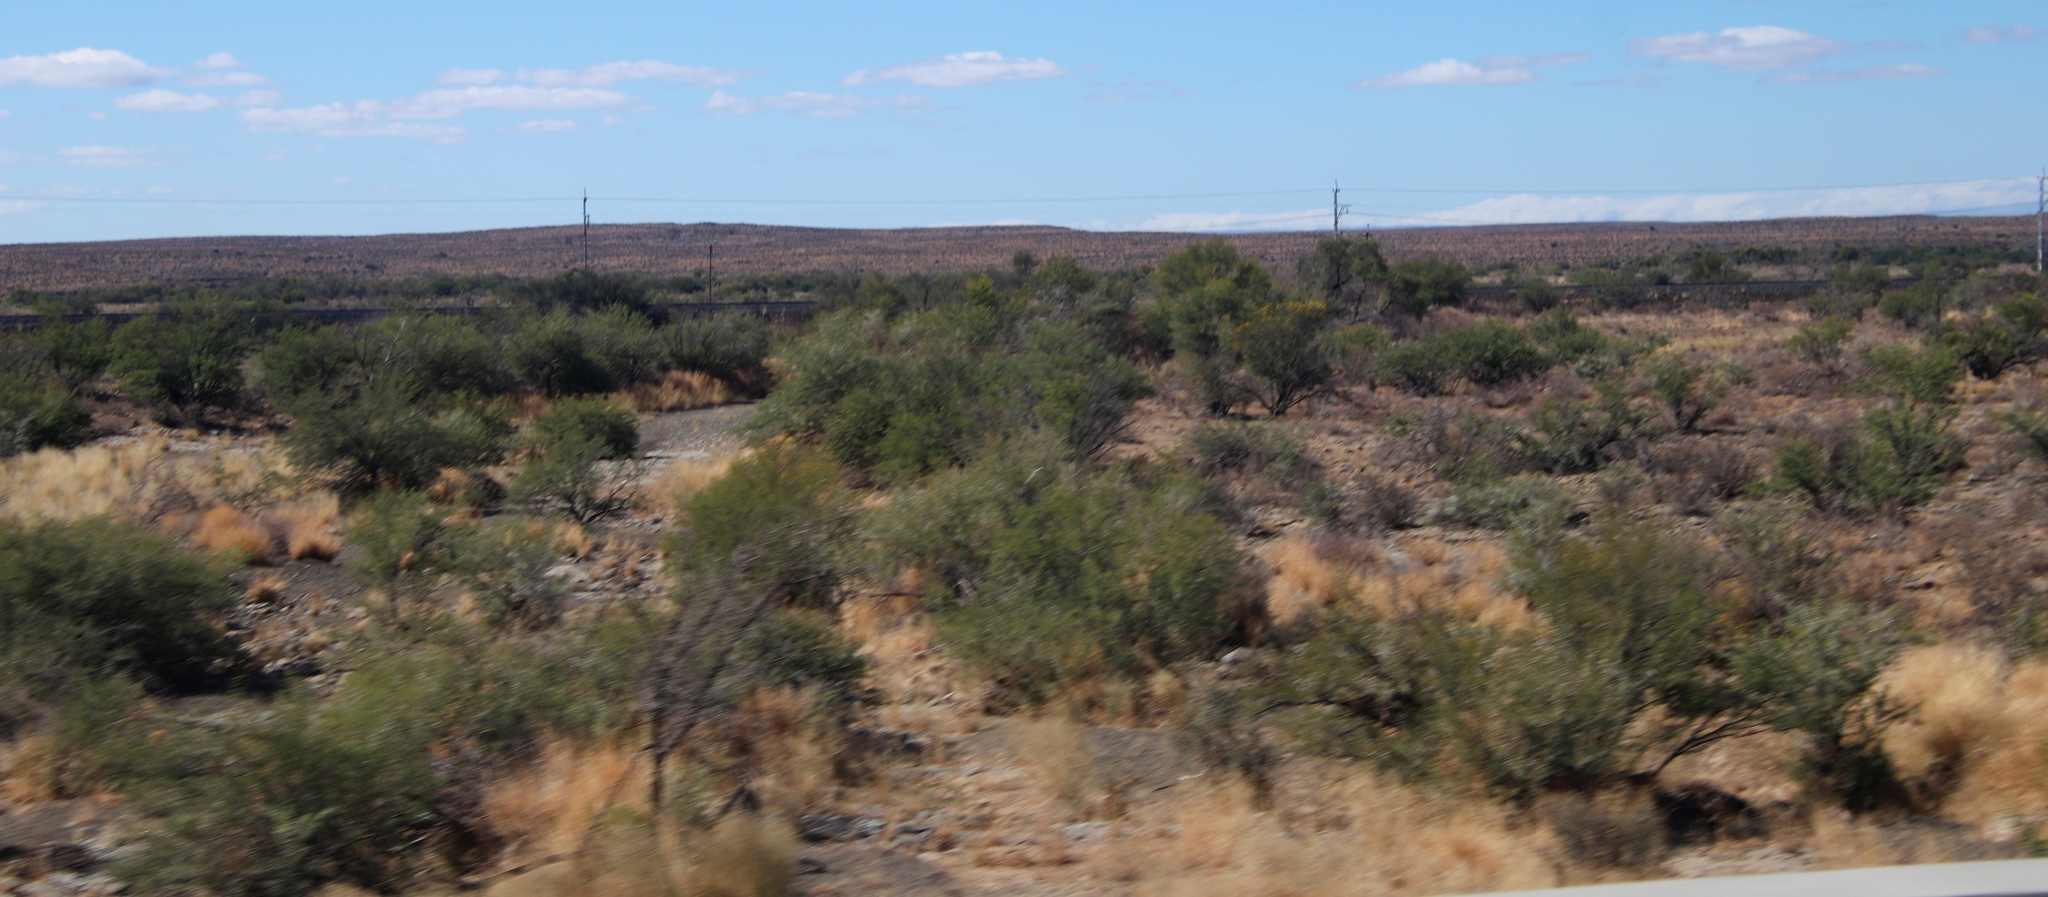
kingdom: Plantae
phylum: Tracheophyta
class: Magnoliopsida
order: Fabales
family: Fabaceae
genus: Vachellia
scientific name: Vachellia karroo
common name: Sweet thorn
